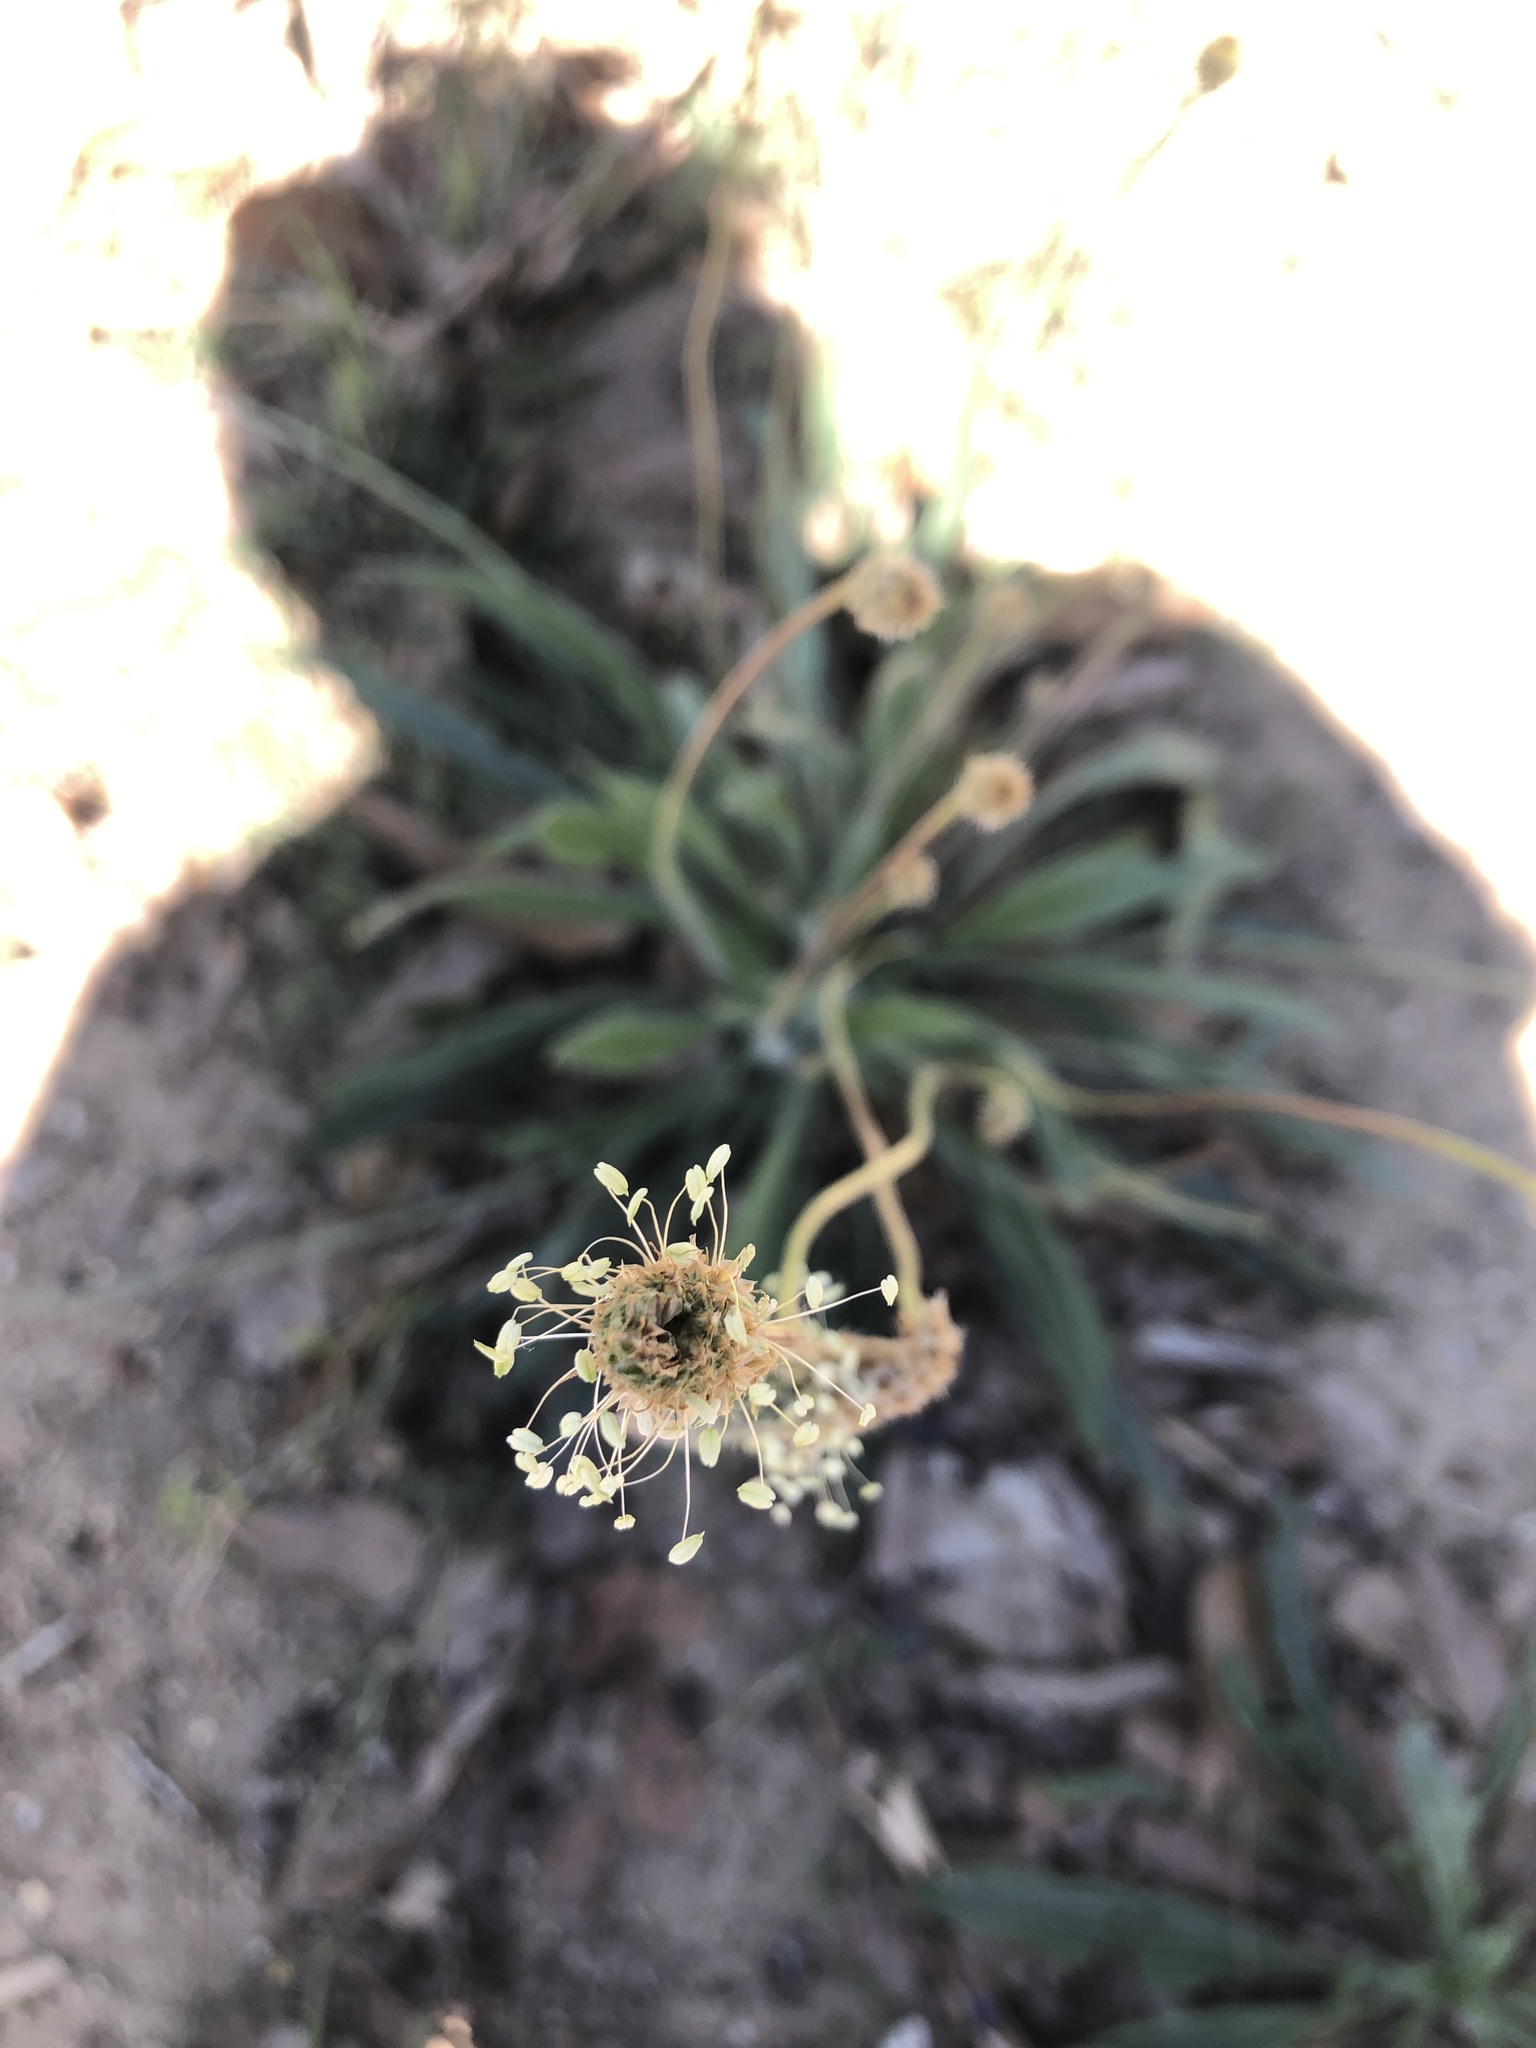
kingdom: Plantae
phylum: Tracheophyta
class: Magnoliopsida
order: Lamiales
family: Plantaginaceae
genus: Plantago
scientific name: Plantago lanceolata
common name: Ribwort plantain
